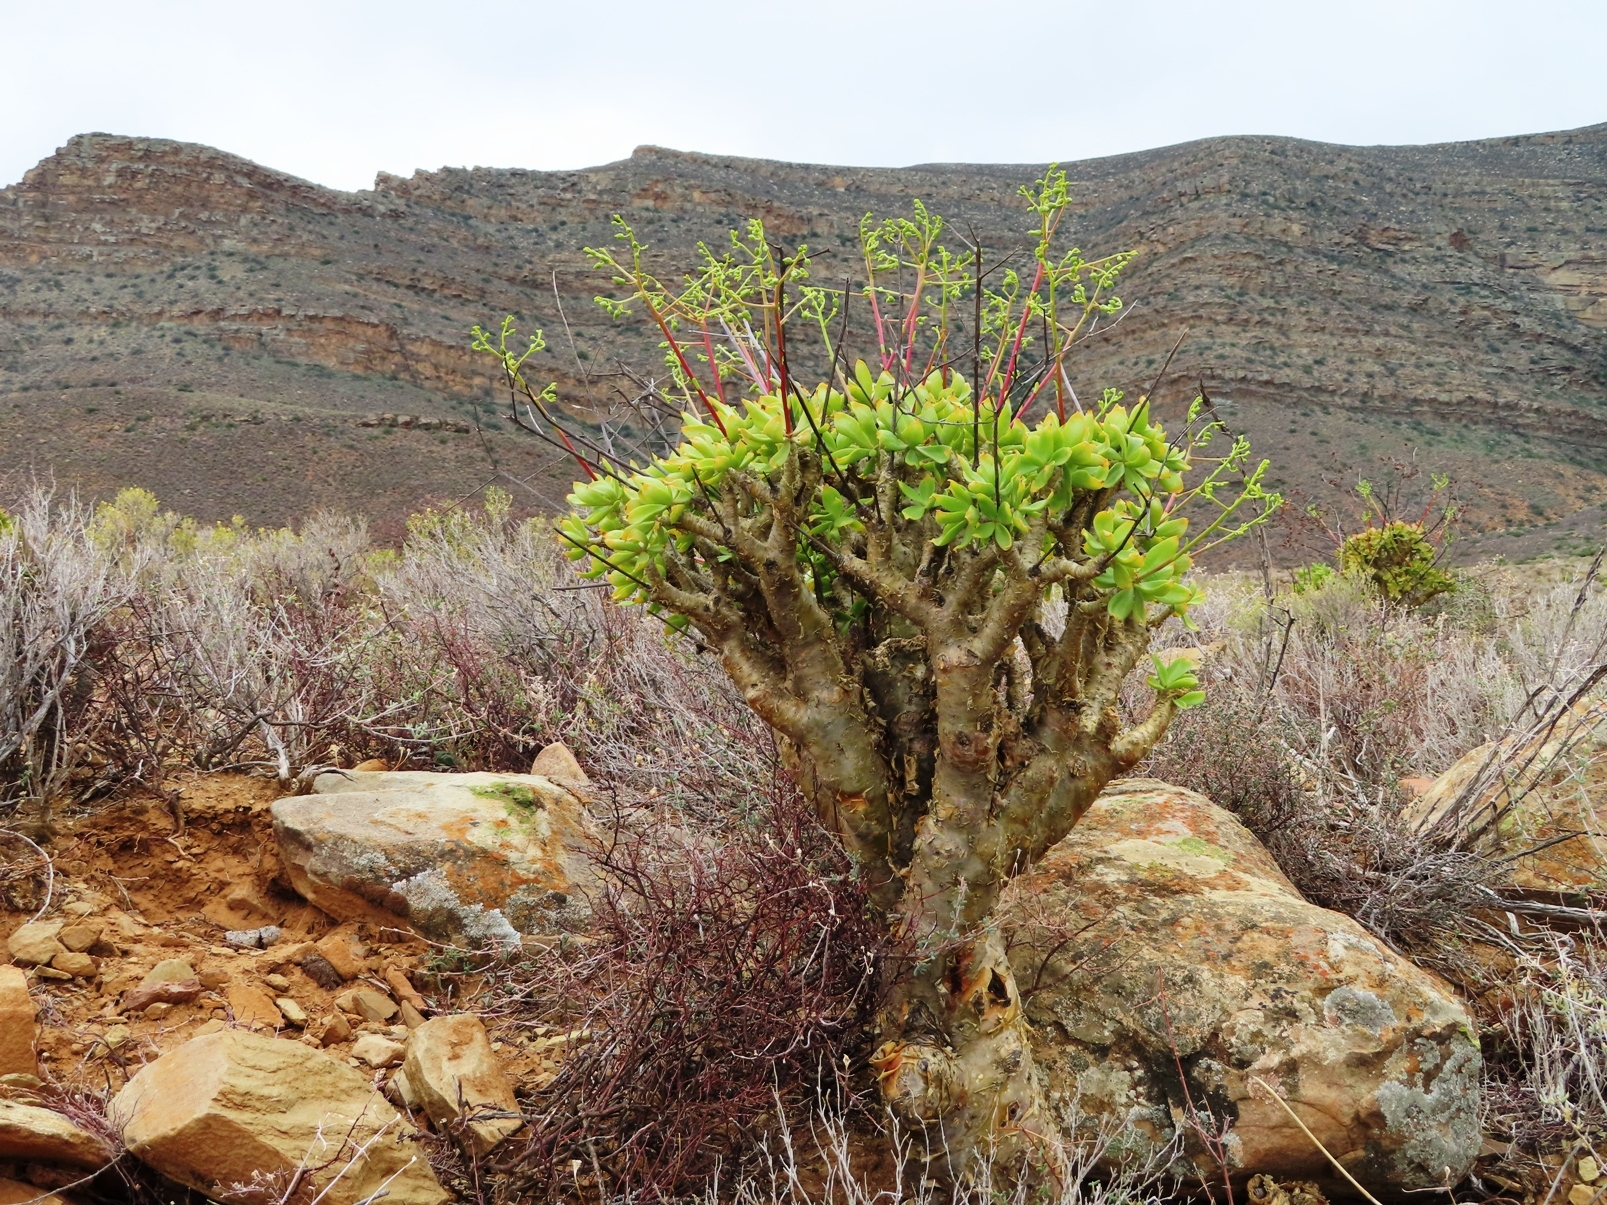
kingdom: Plantae
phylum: Tracheophyta
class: Magnoliopsida
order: Saxifragales
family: Crassulaceae
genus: Tylecodon
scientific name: Tylecodon paniculatus
